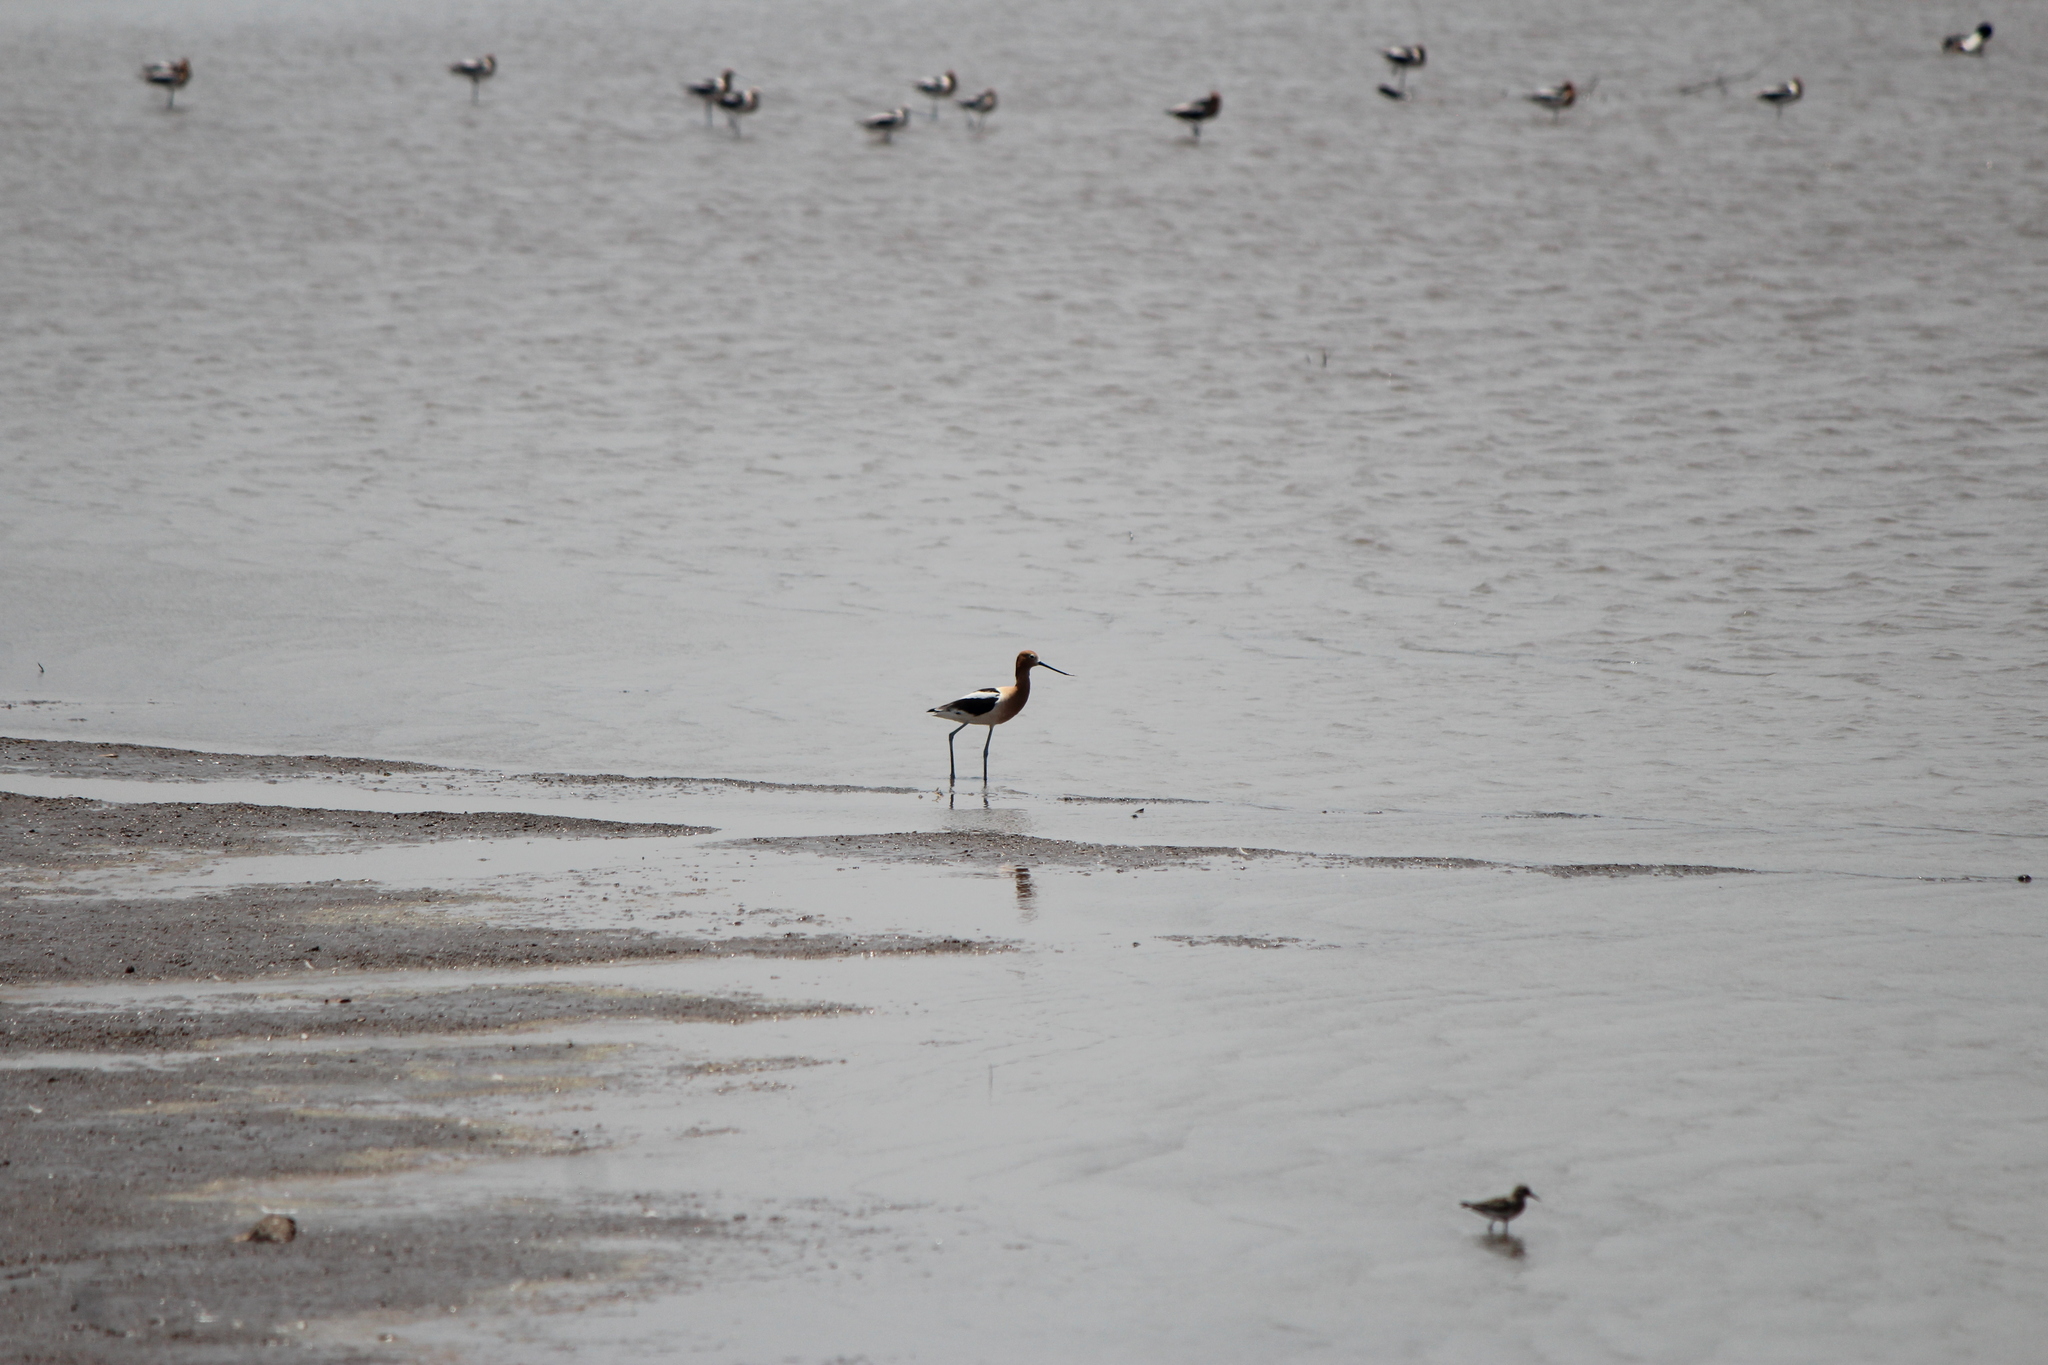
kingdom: Animalia
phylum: Chordata
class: Aves
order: Charadriiformes
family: Recurvirostridae
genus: Recurvirostra
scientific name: Recurvirostra americana
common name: American avocet
